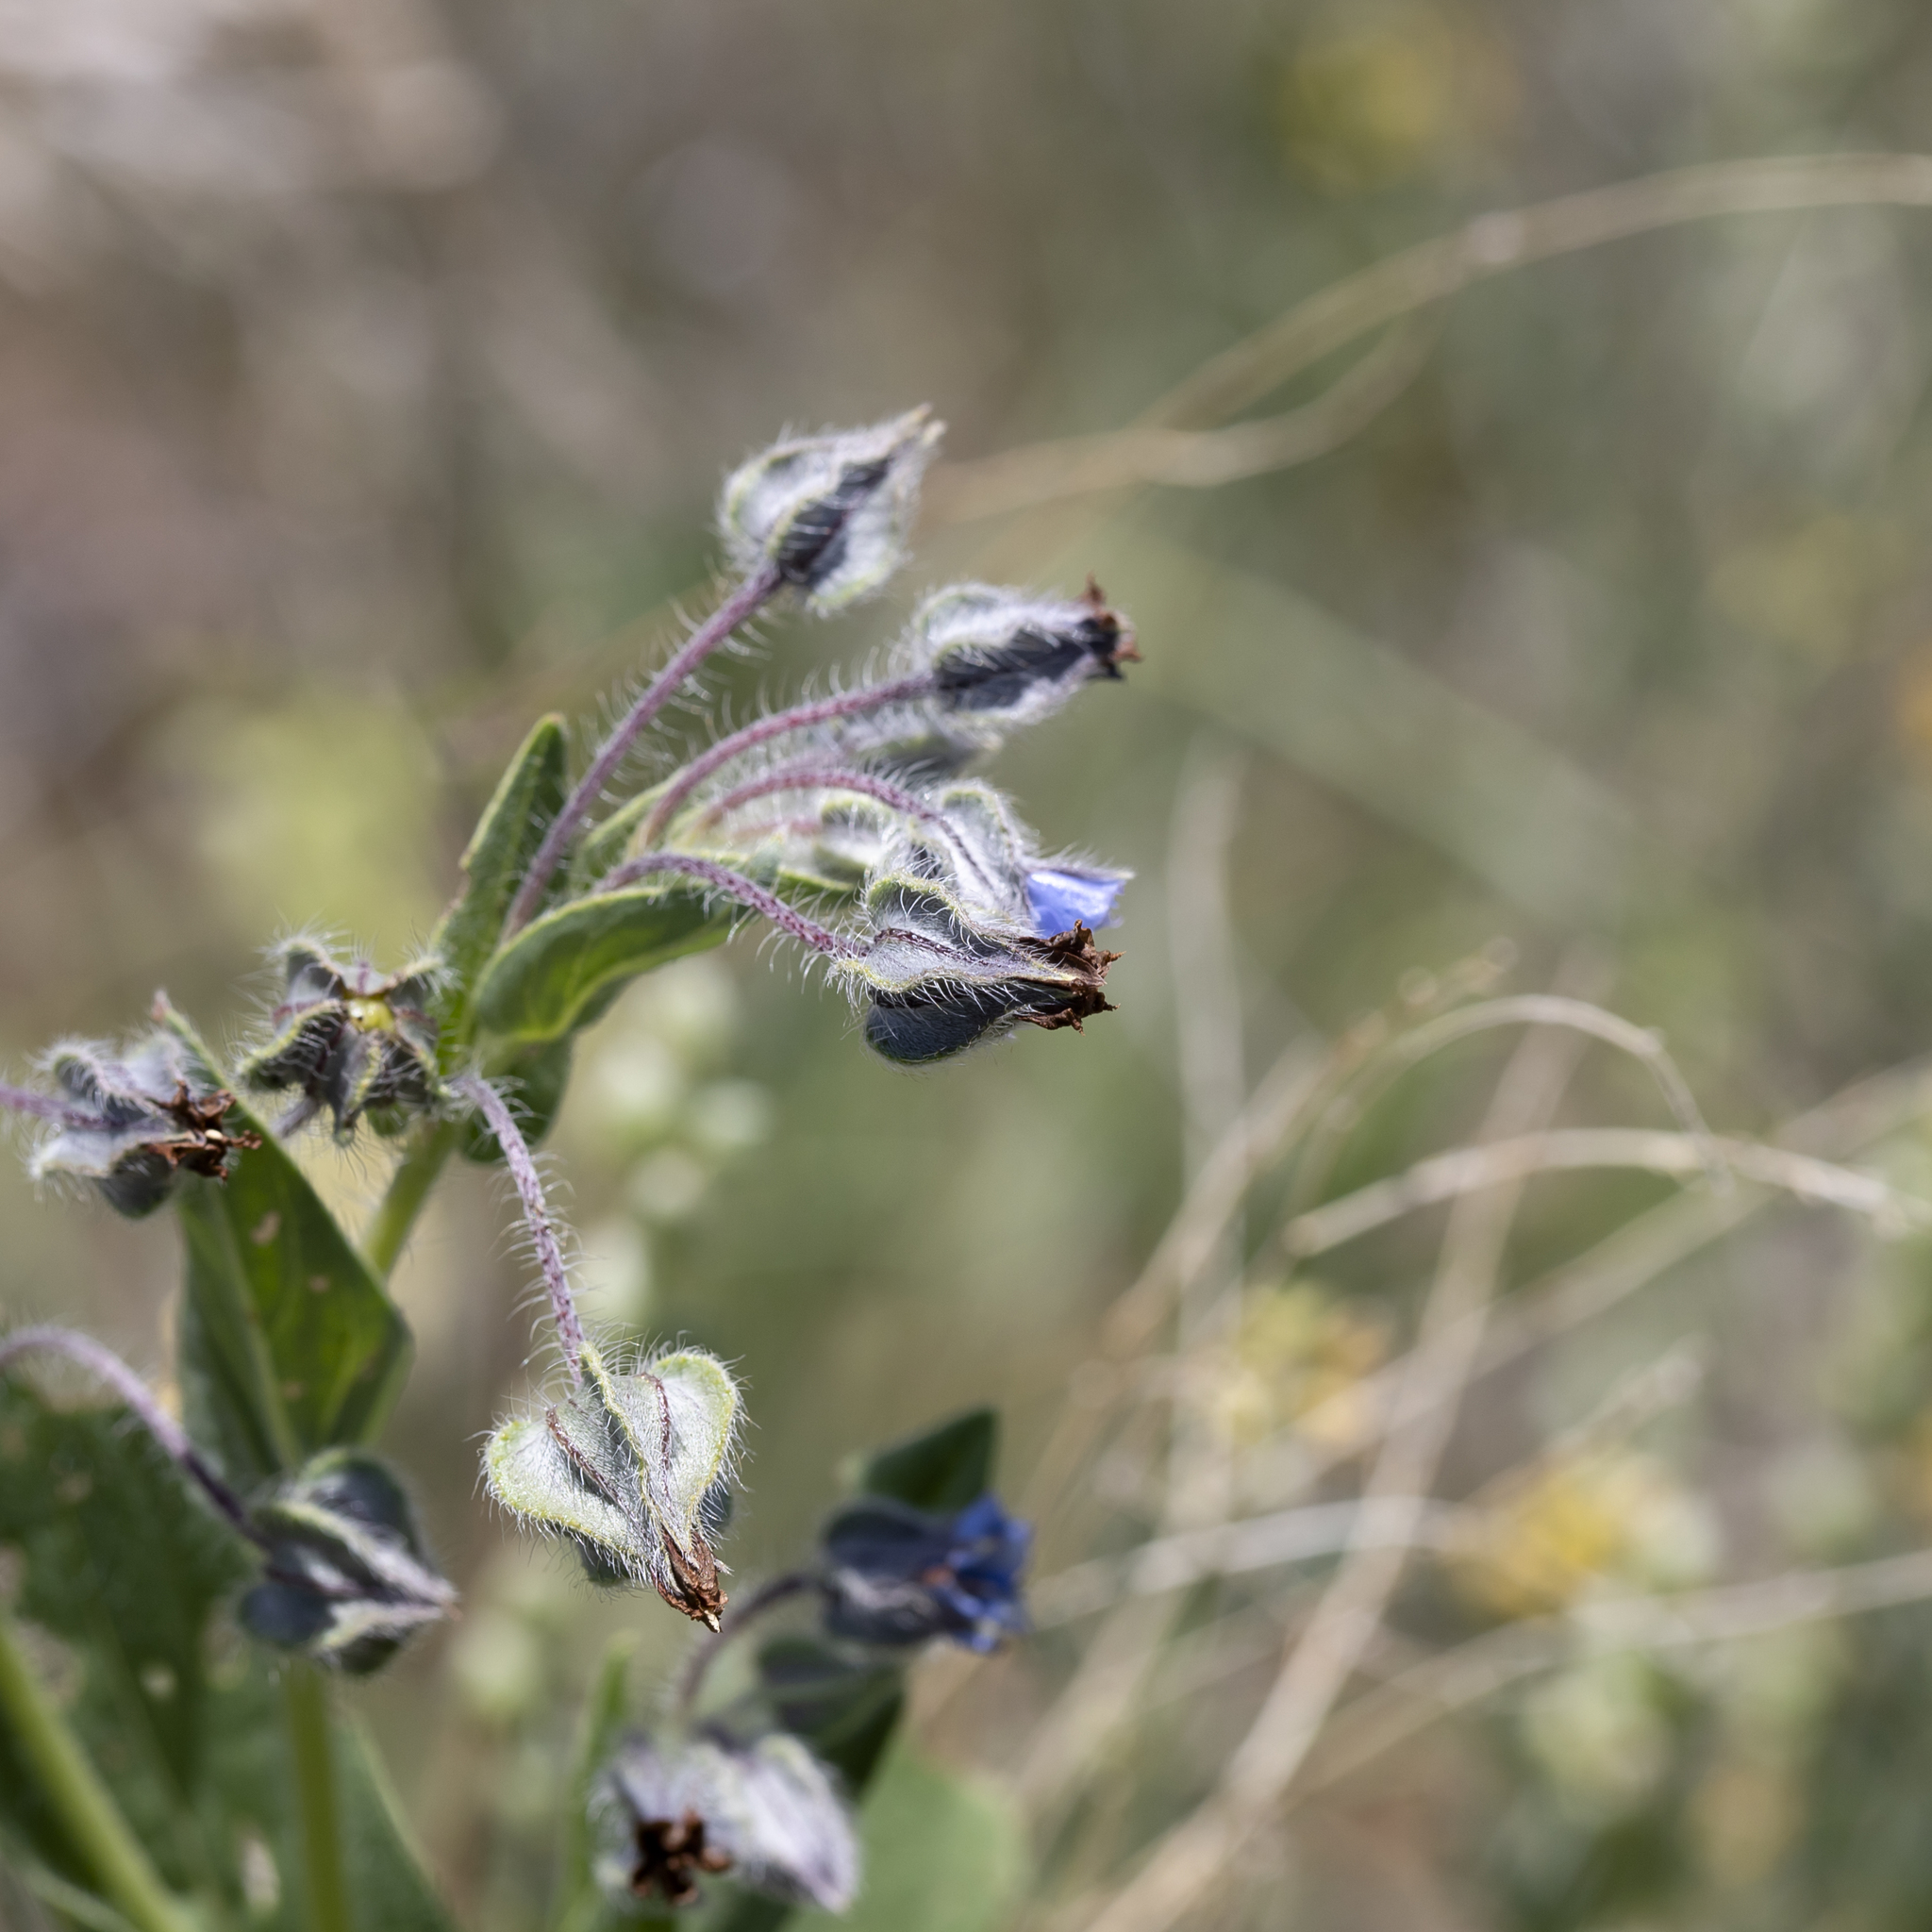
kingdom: Plantae
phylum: Tracheophyta
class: Magnoliopsida
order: Boraginales
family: Boraginaceae
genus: Trichodesma
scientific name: Trichodesma zeylanicum
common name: Camelbush
